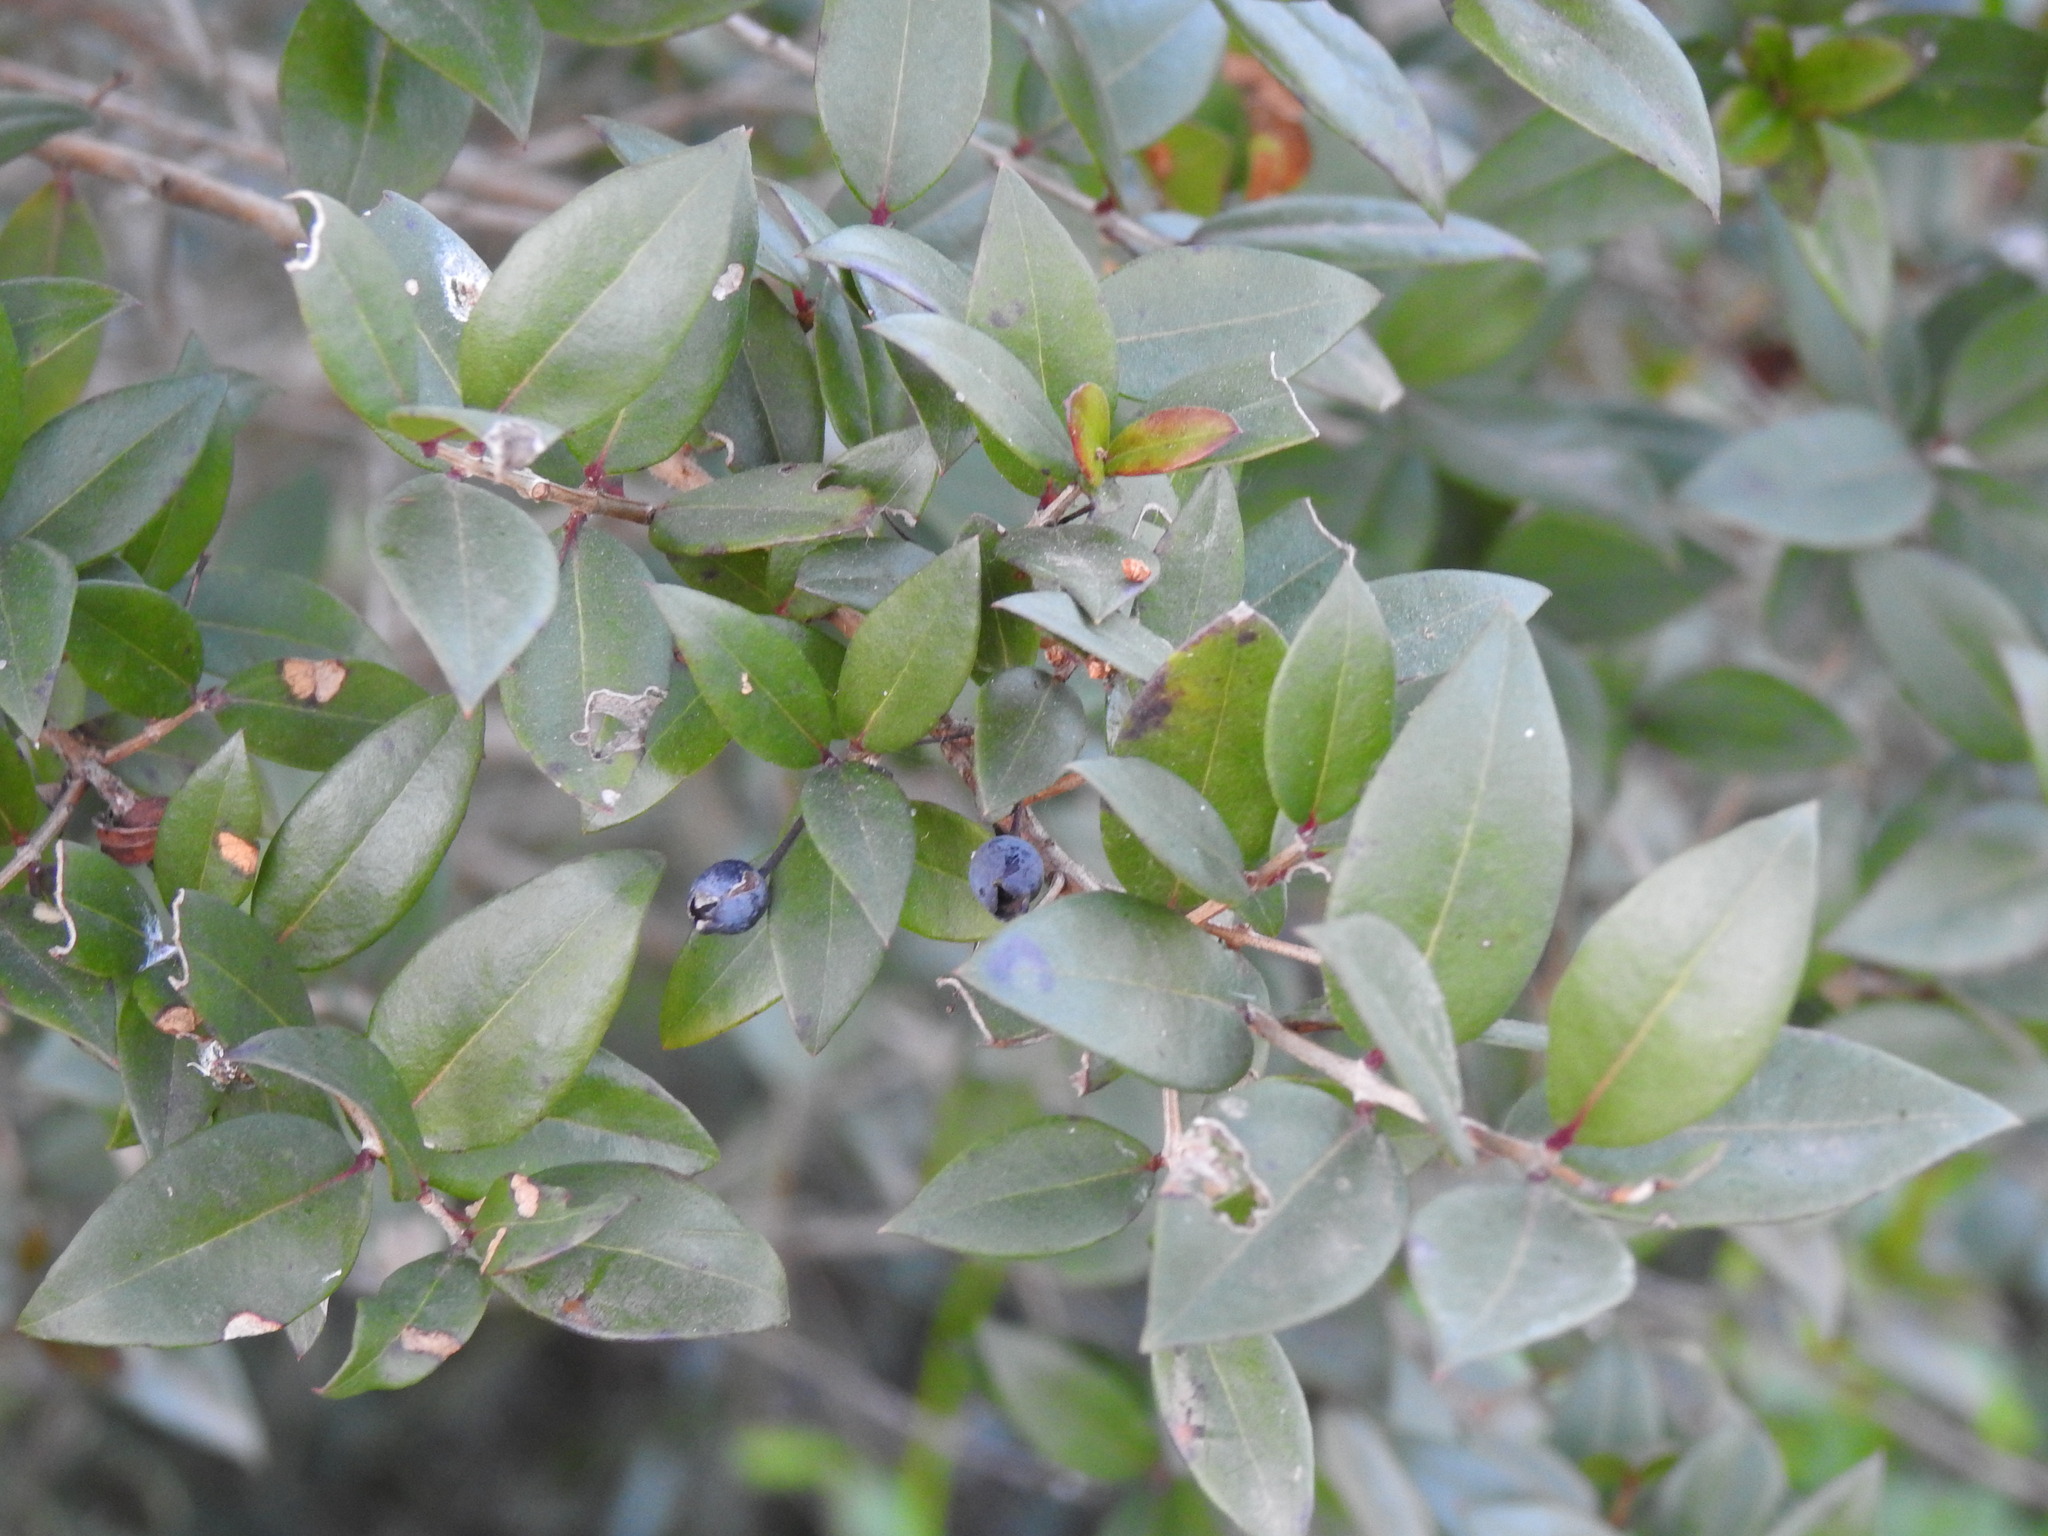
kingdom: Plantae
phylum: Tracheophyta
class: Magnoliopsida
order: Myrtales
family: Myrtaceae
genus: Myrtus
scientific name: Myrtus communis
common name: Myrtle
